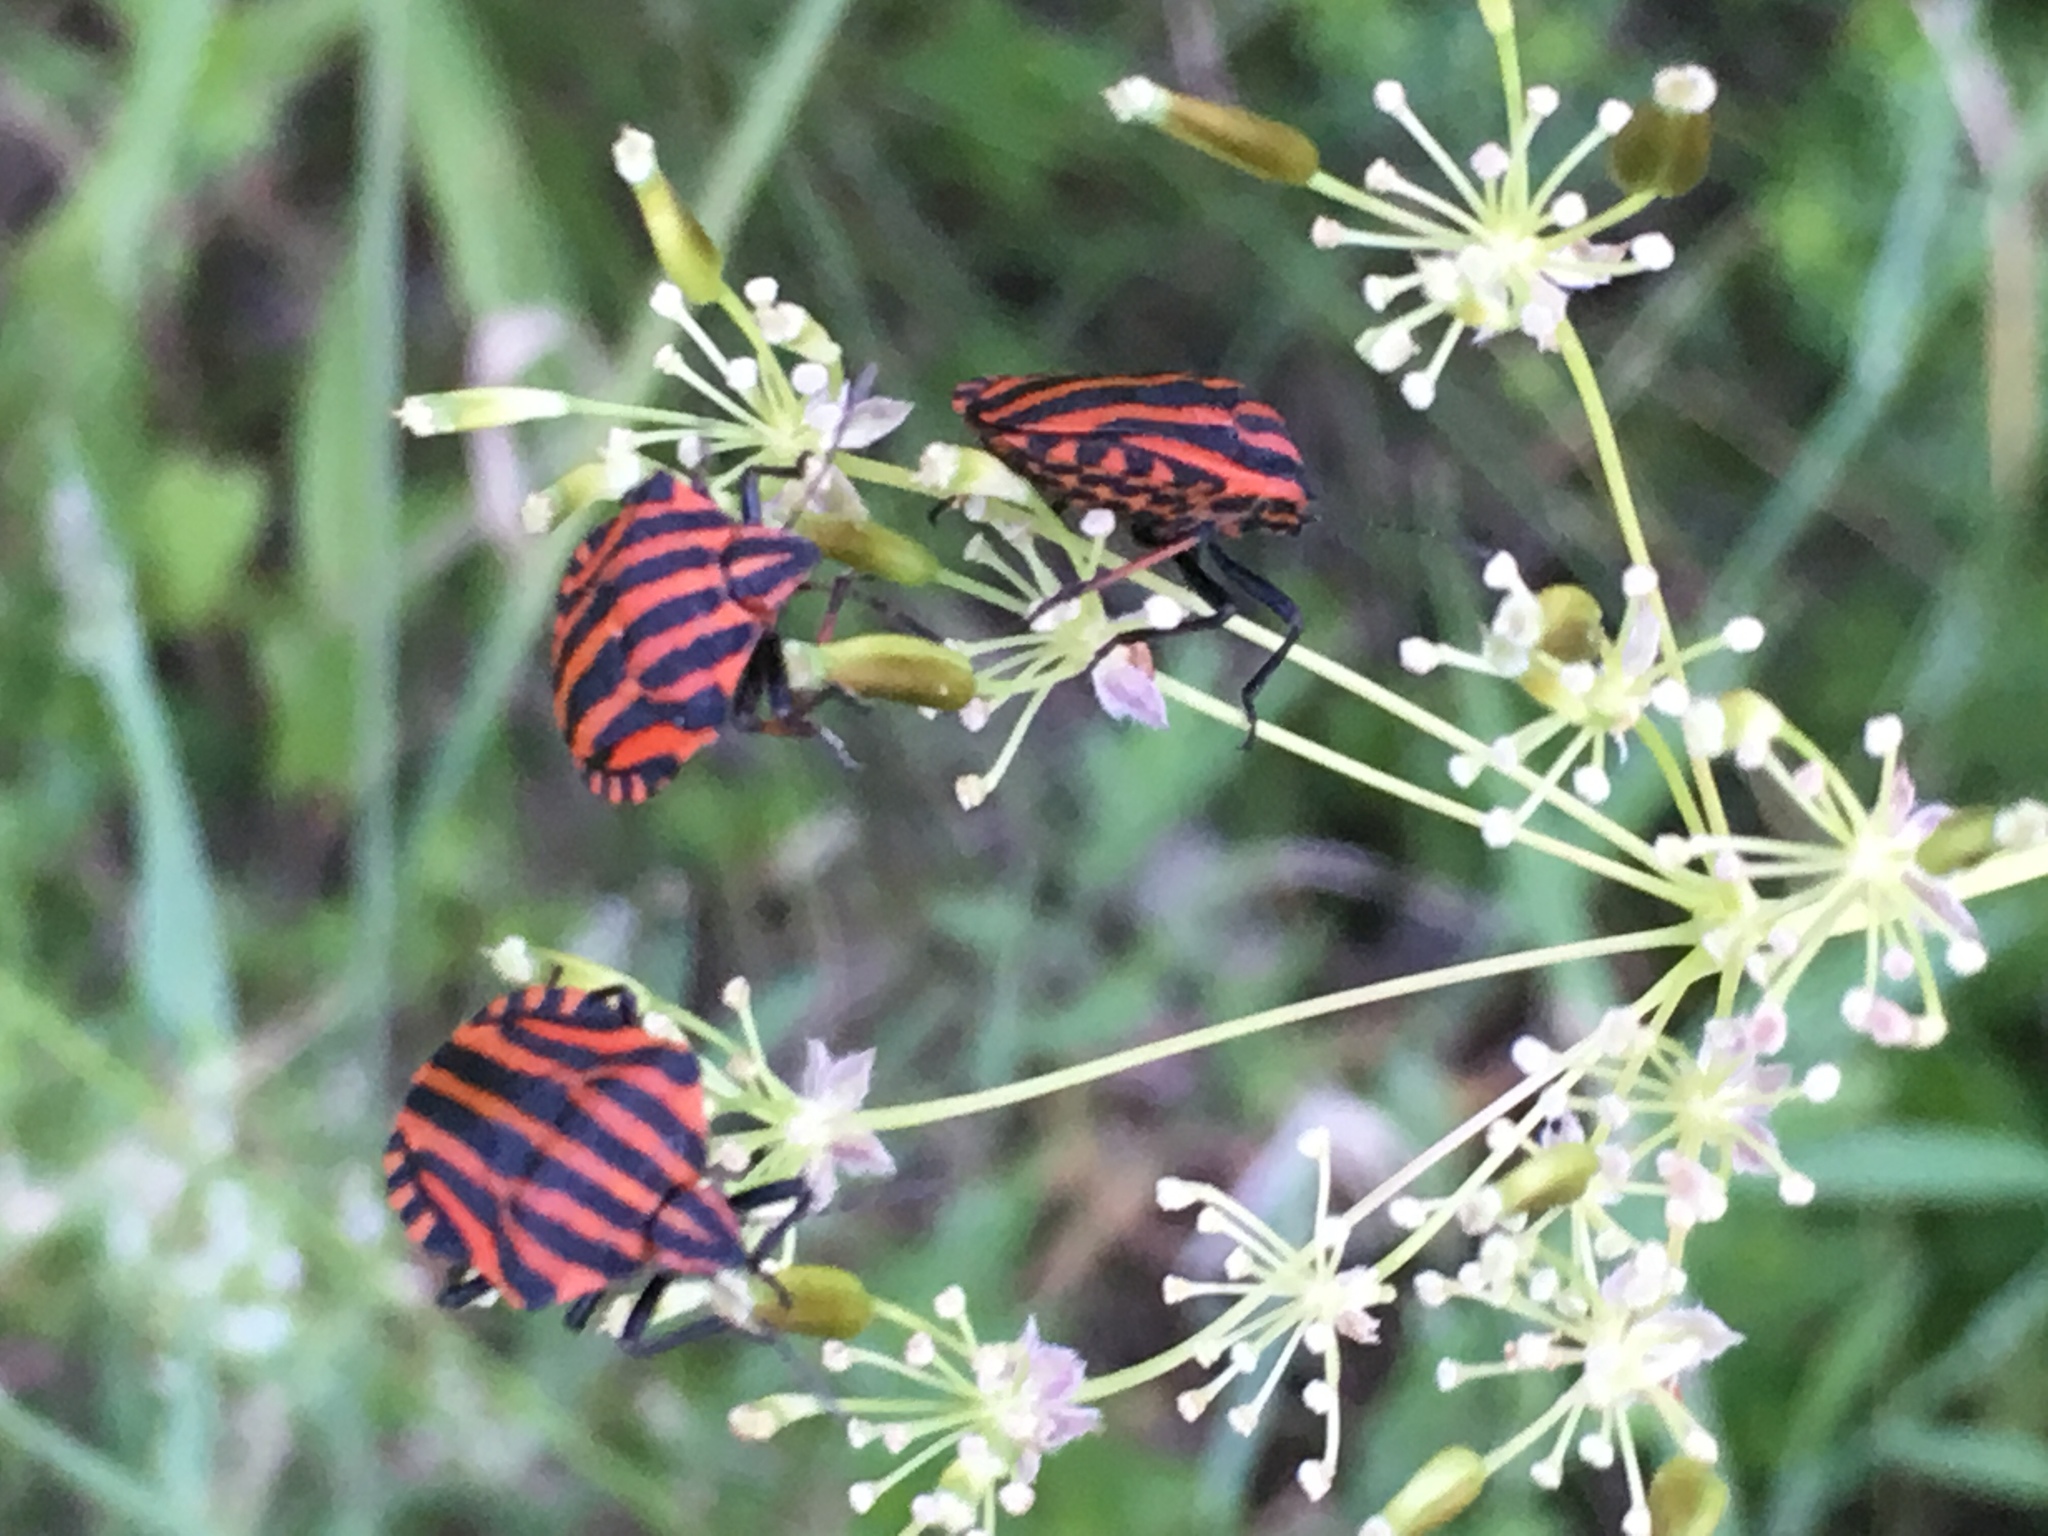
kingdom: Animalia
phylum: Arthropoda
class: Insecta
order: Hemiptera
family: Pentatomidae
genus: Graphosoma
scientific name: Graphosoma italicum
